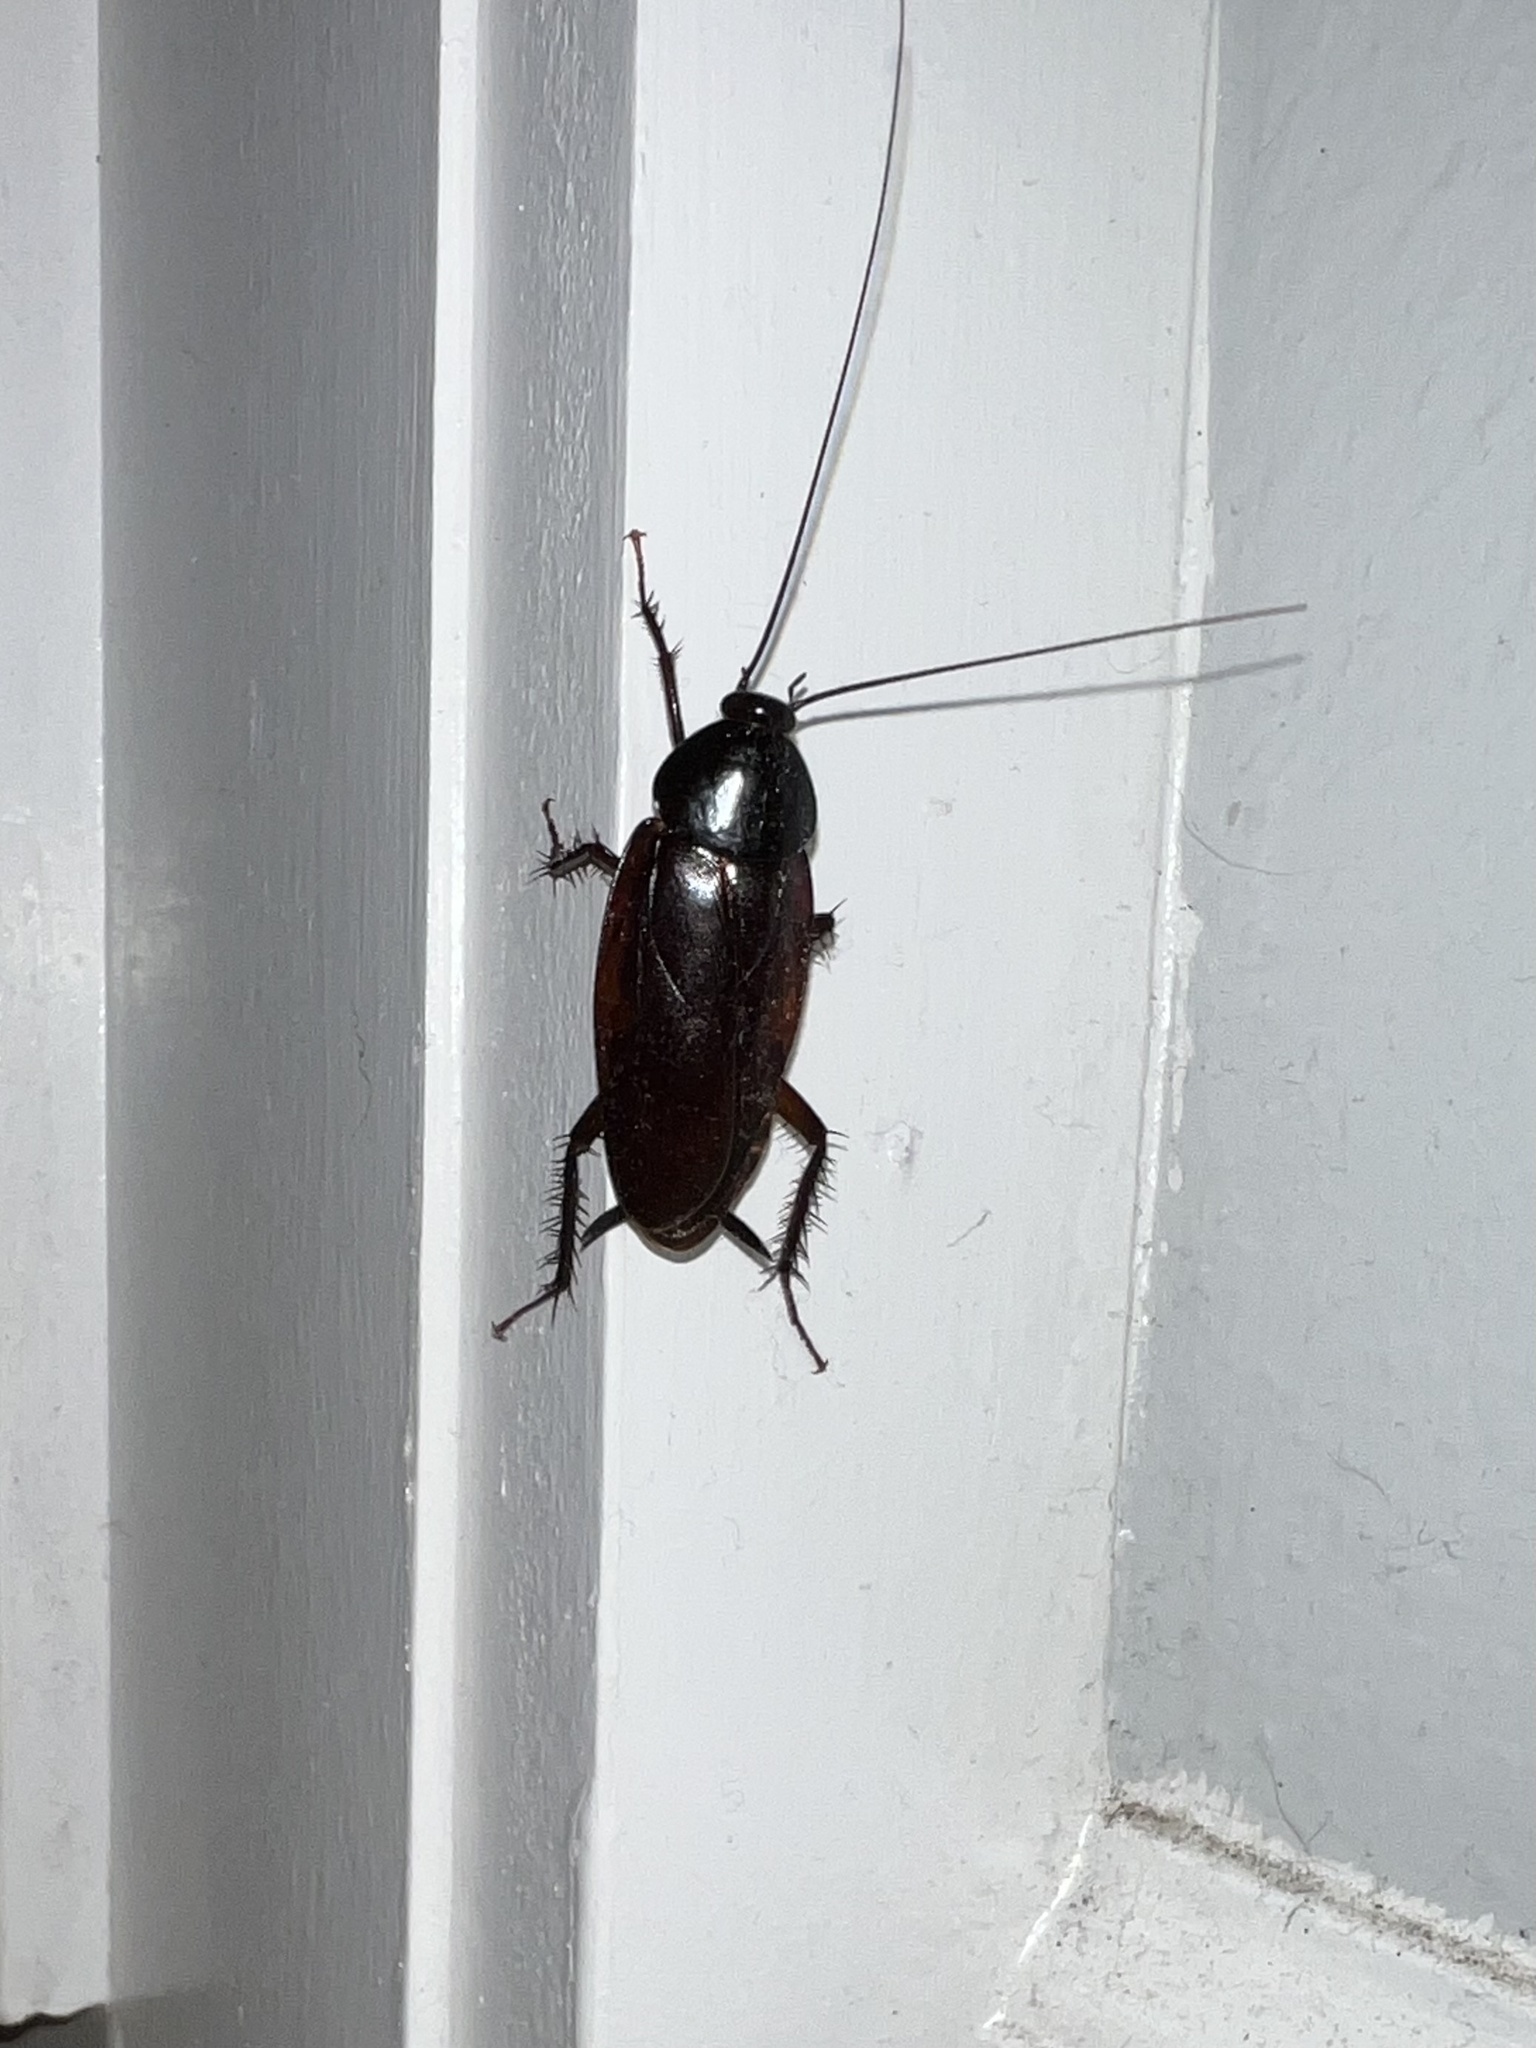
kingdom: Animalia
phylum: Arthropoda
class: Insecta
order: Blattodea
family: Blattidae
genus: Periplaneta
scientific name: Periplaneta fuliginosa
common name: Smokeybrown cockroad
